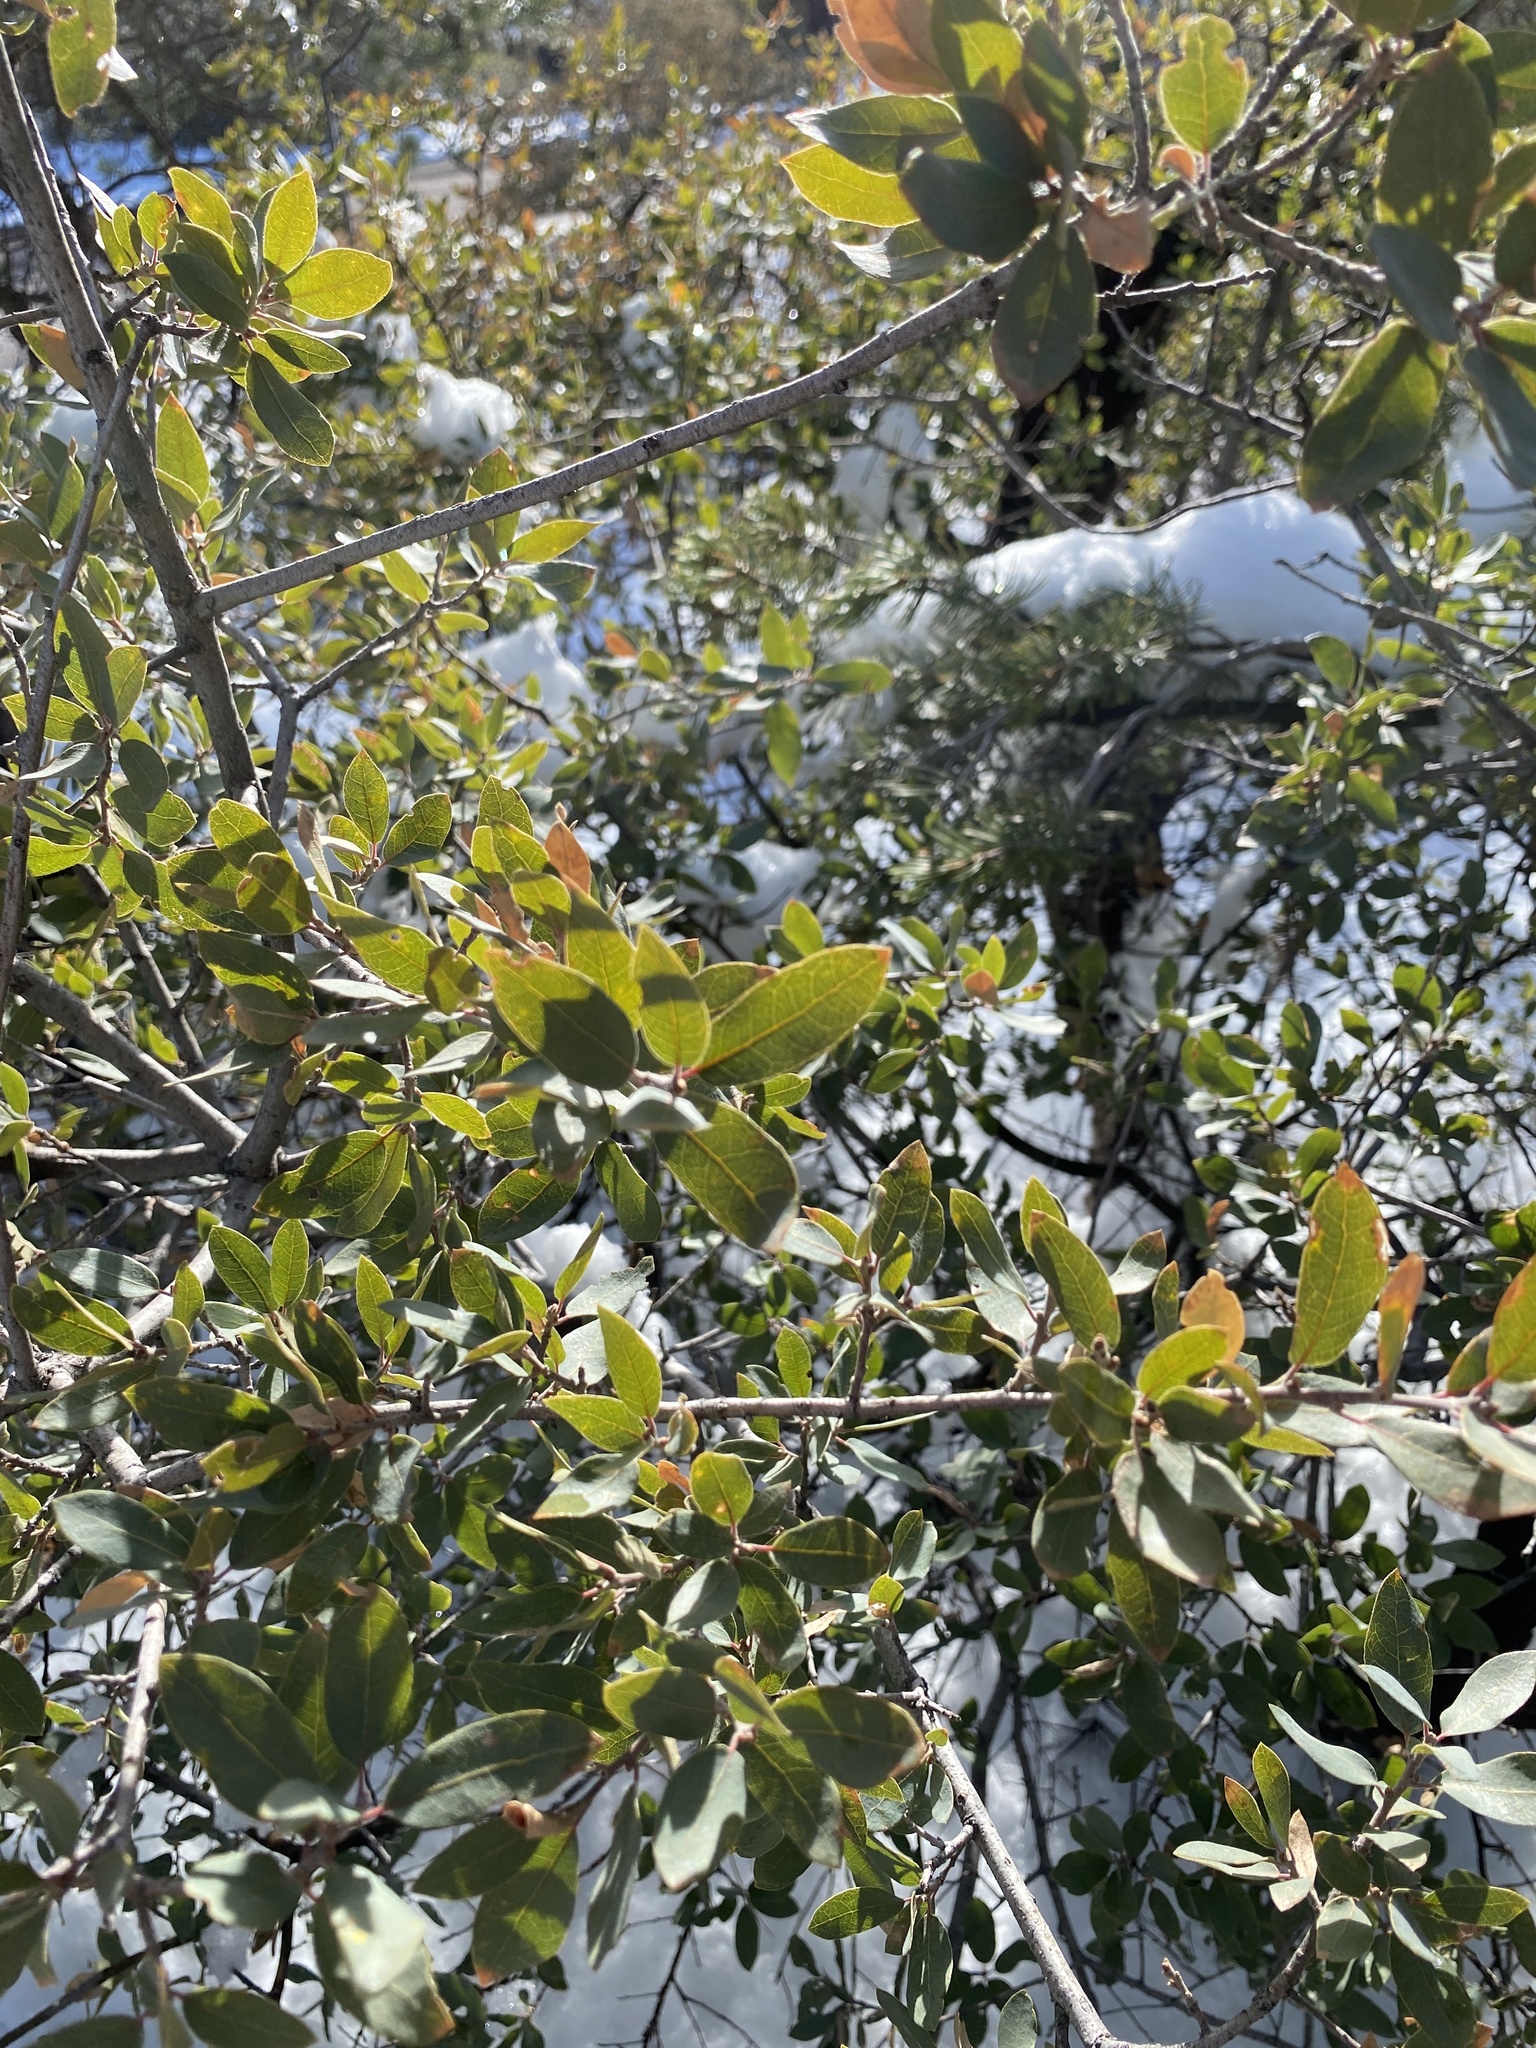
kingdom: Plantae
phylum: Tracheophyta
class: Magnoliopsida
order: Fagales
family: Fagaceae
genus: Quercus
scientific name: Quercus grisea
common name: Gray oak
